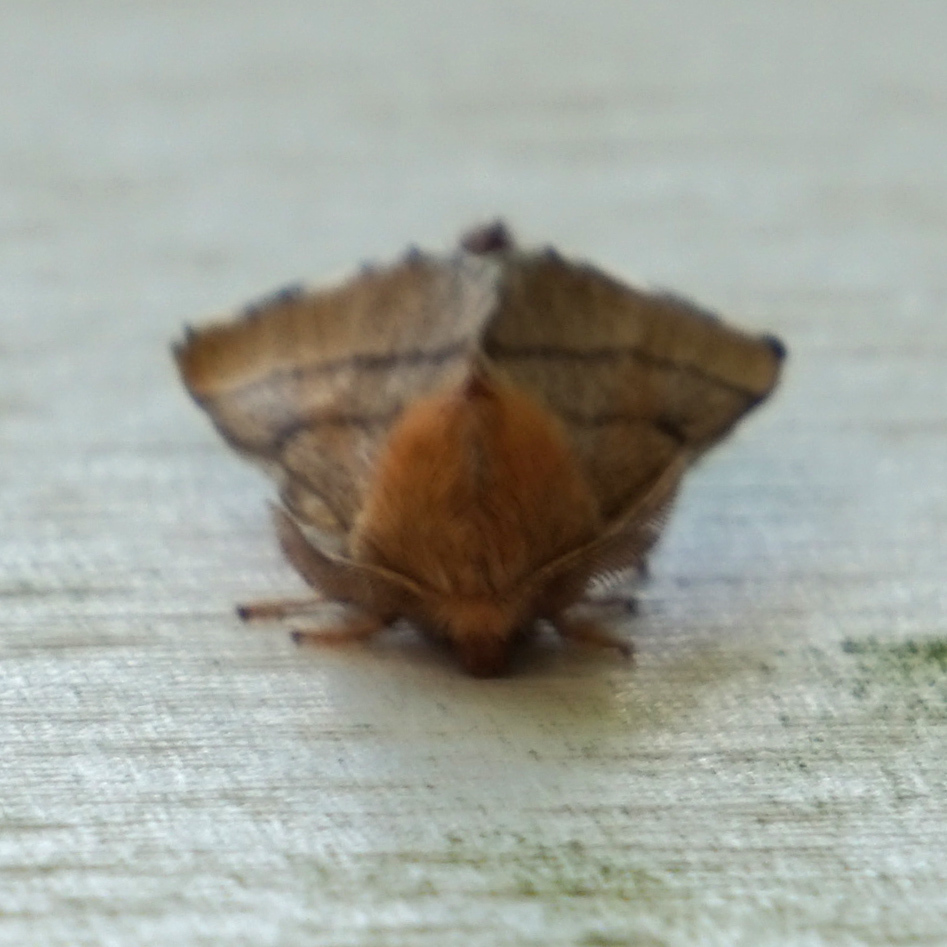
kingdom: Animalia
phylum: Arthropoda
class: Insecta
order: Lepidoptera
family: Lasiocampidae
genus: Malacosoma
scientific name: Malacosoma disstria
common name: Forest tent caterpillar
